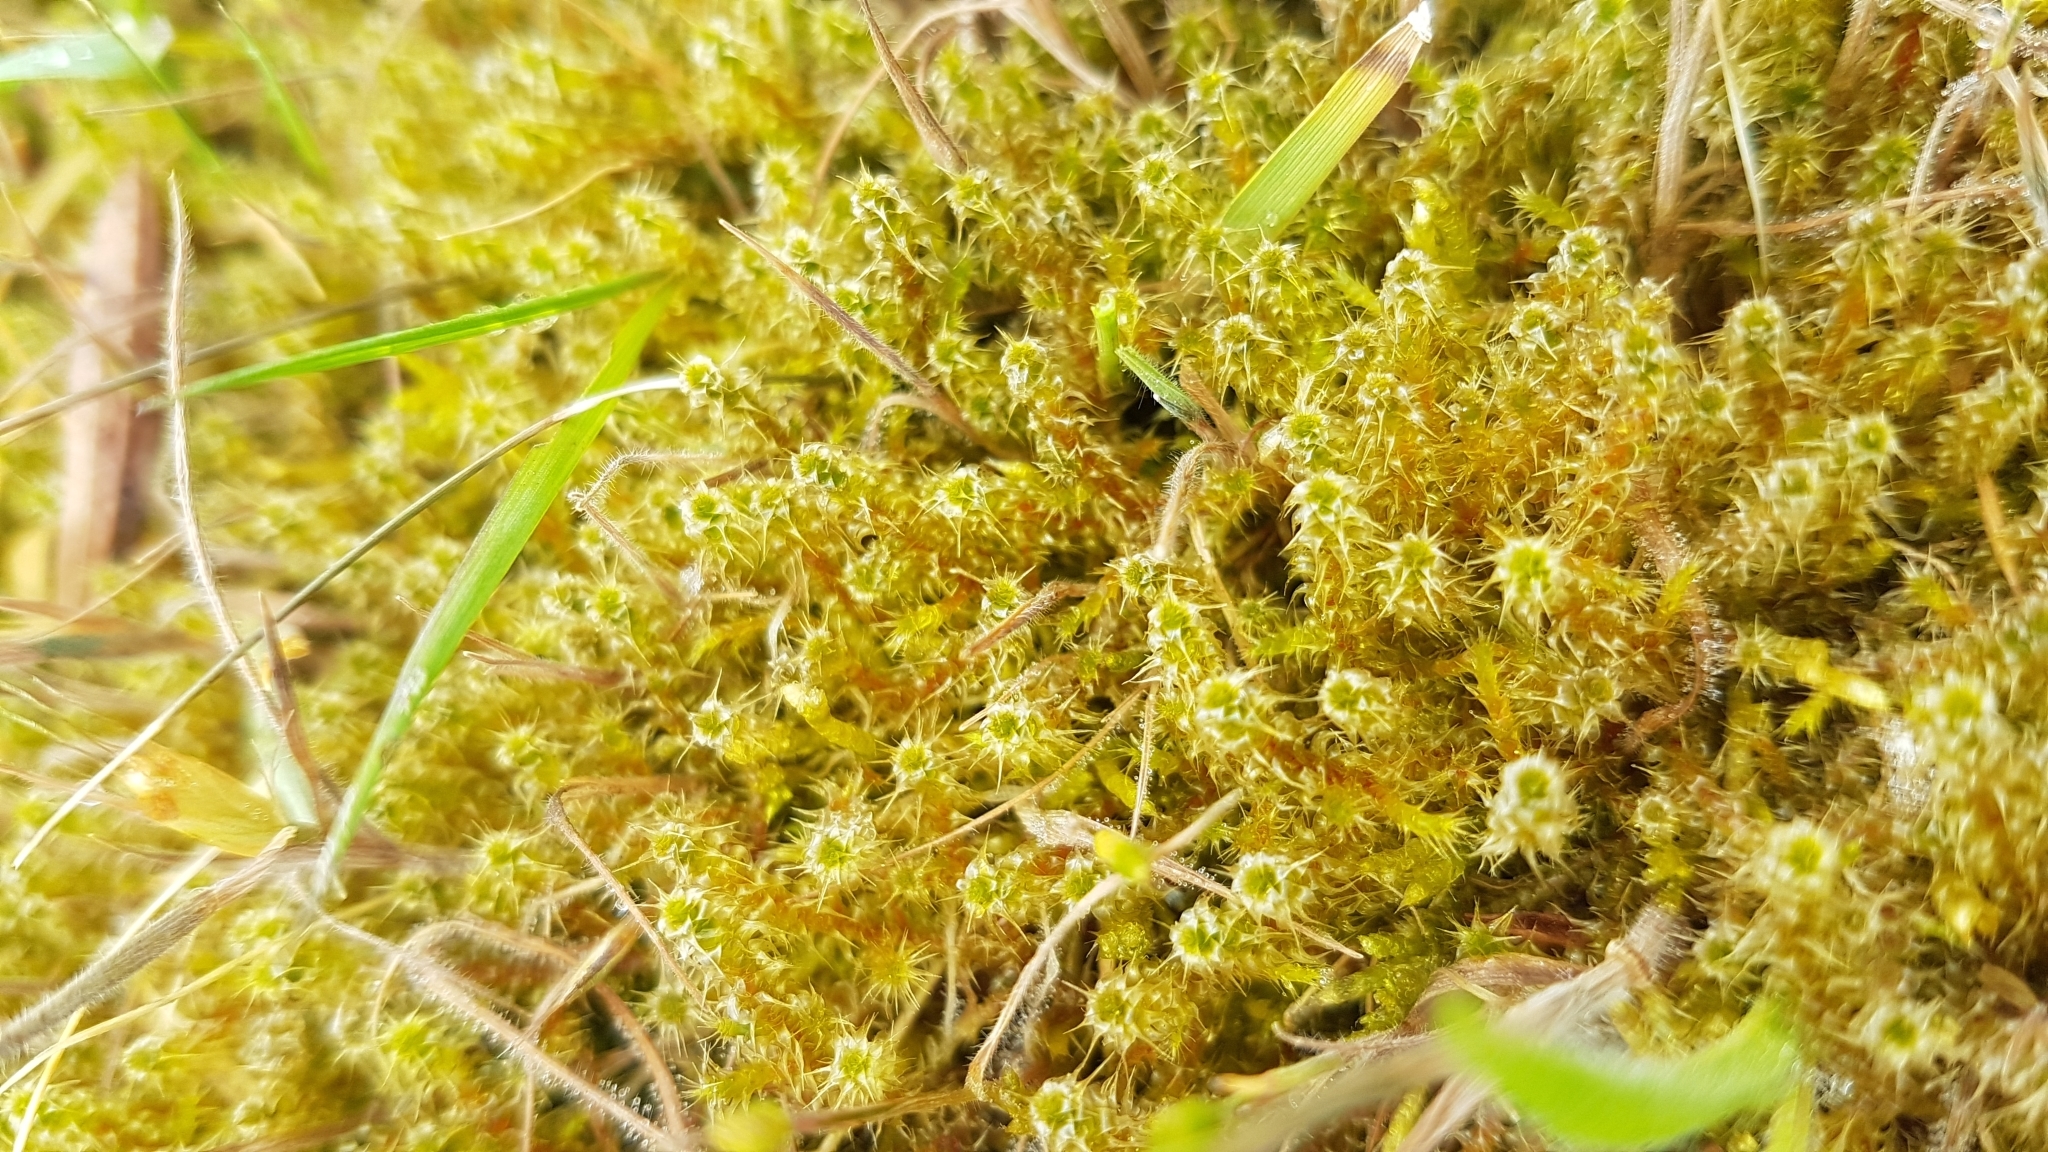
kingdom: Plantae
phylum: Bryophyta
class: Bryopsida
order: Hypnales
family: Hylocomiaceae
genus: Rhytidiadelphus
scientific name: Rhytidiadelphus squarrosus
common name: Springy turf-moss
